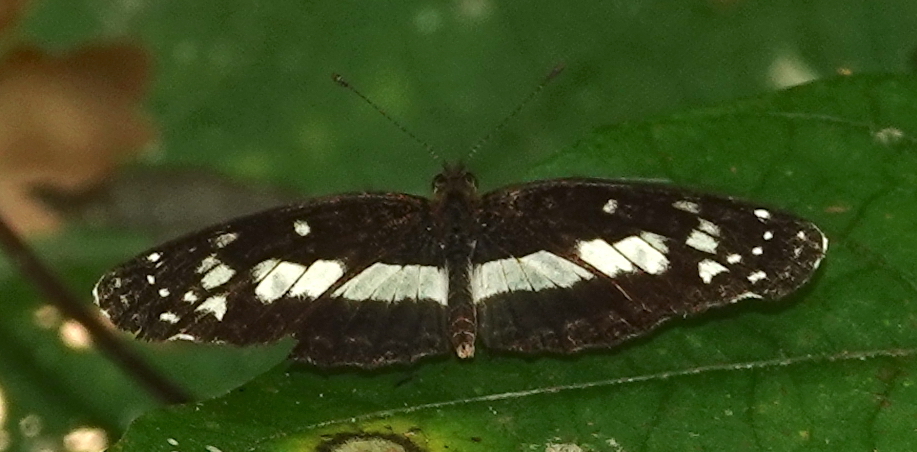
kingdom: Animalia
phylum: Arthropoda
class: Insecta
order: Lepidoptera
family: Nymphalidae
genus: Castilia
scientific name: Castilia ofella
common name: White-dotted crescent
